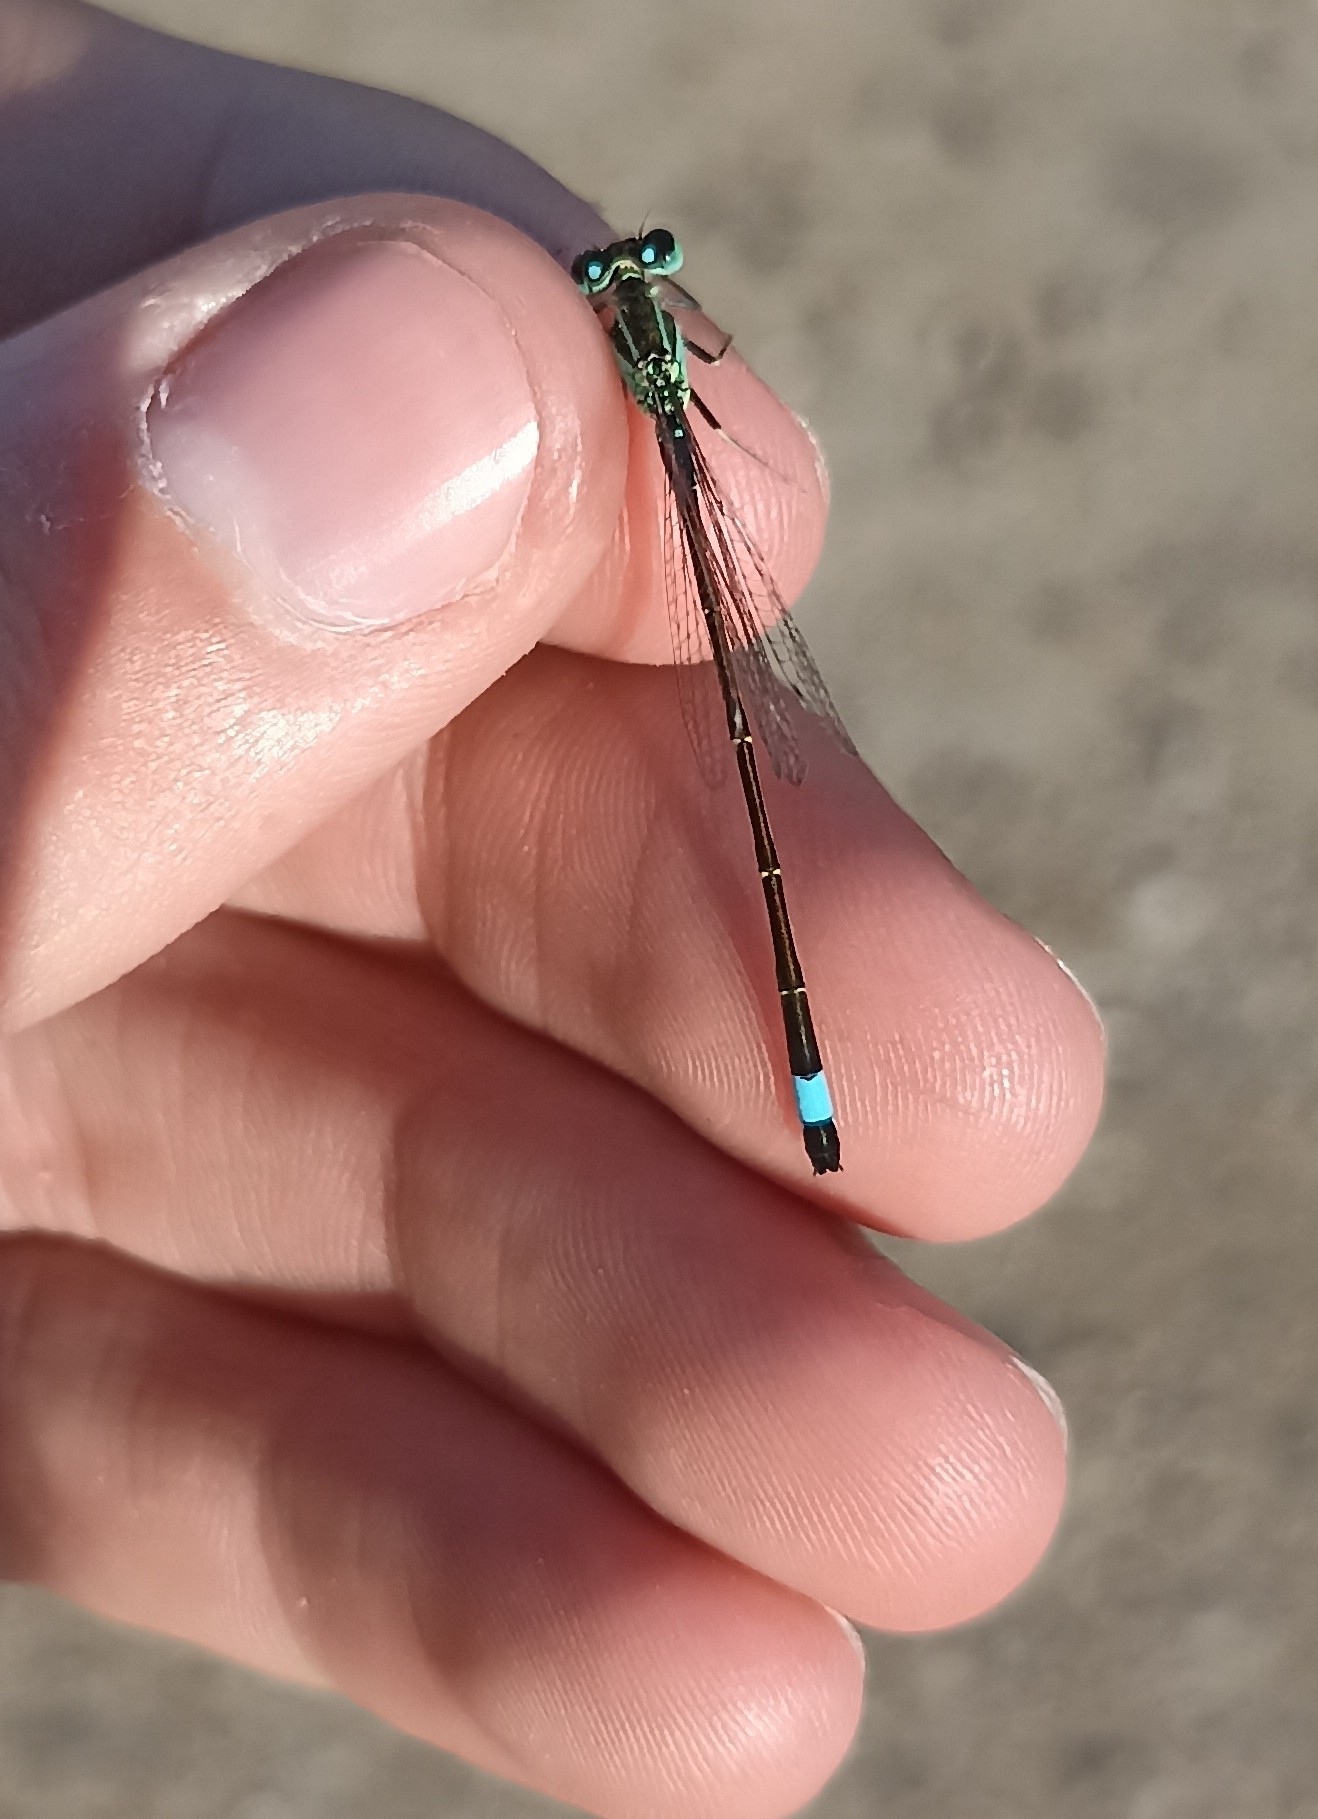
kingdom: Animalia
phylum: Arthropoda
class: Insecta
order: Odonata
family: Coenagrionidae
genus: Ischnura
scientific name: Ischnura elegans
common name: Blue-tailed damselfly
